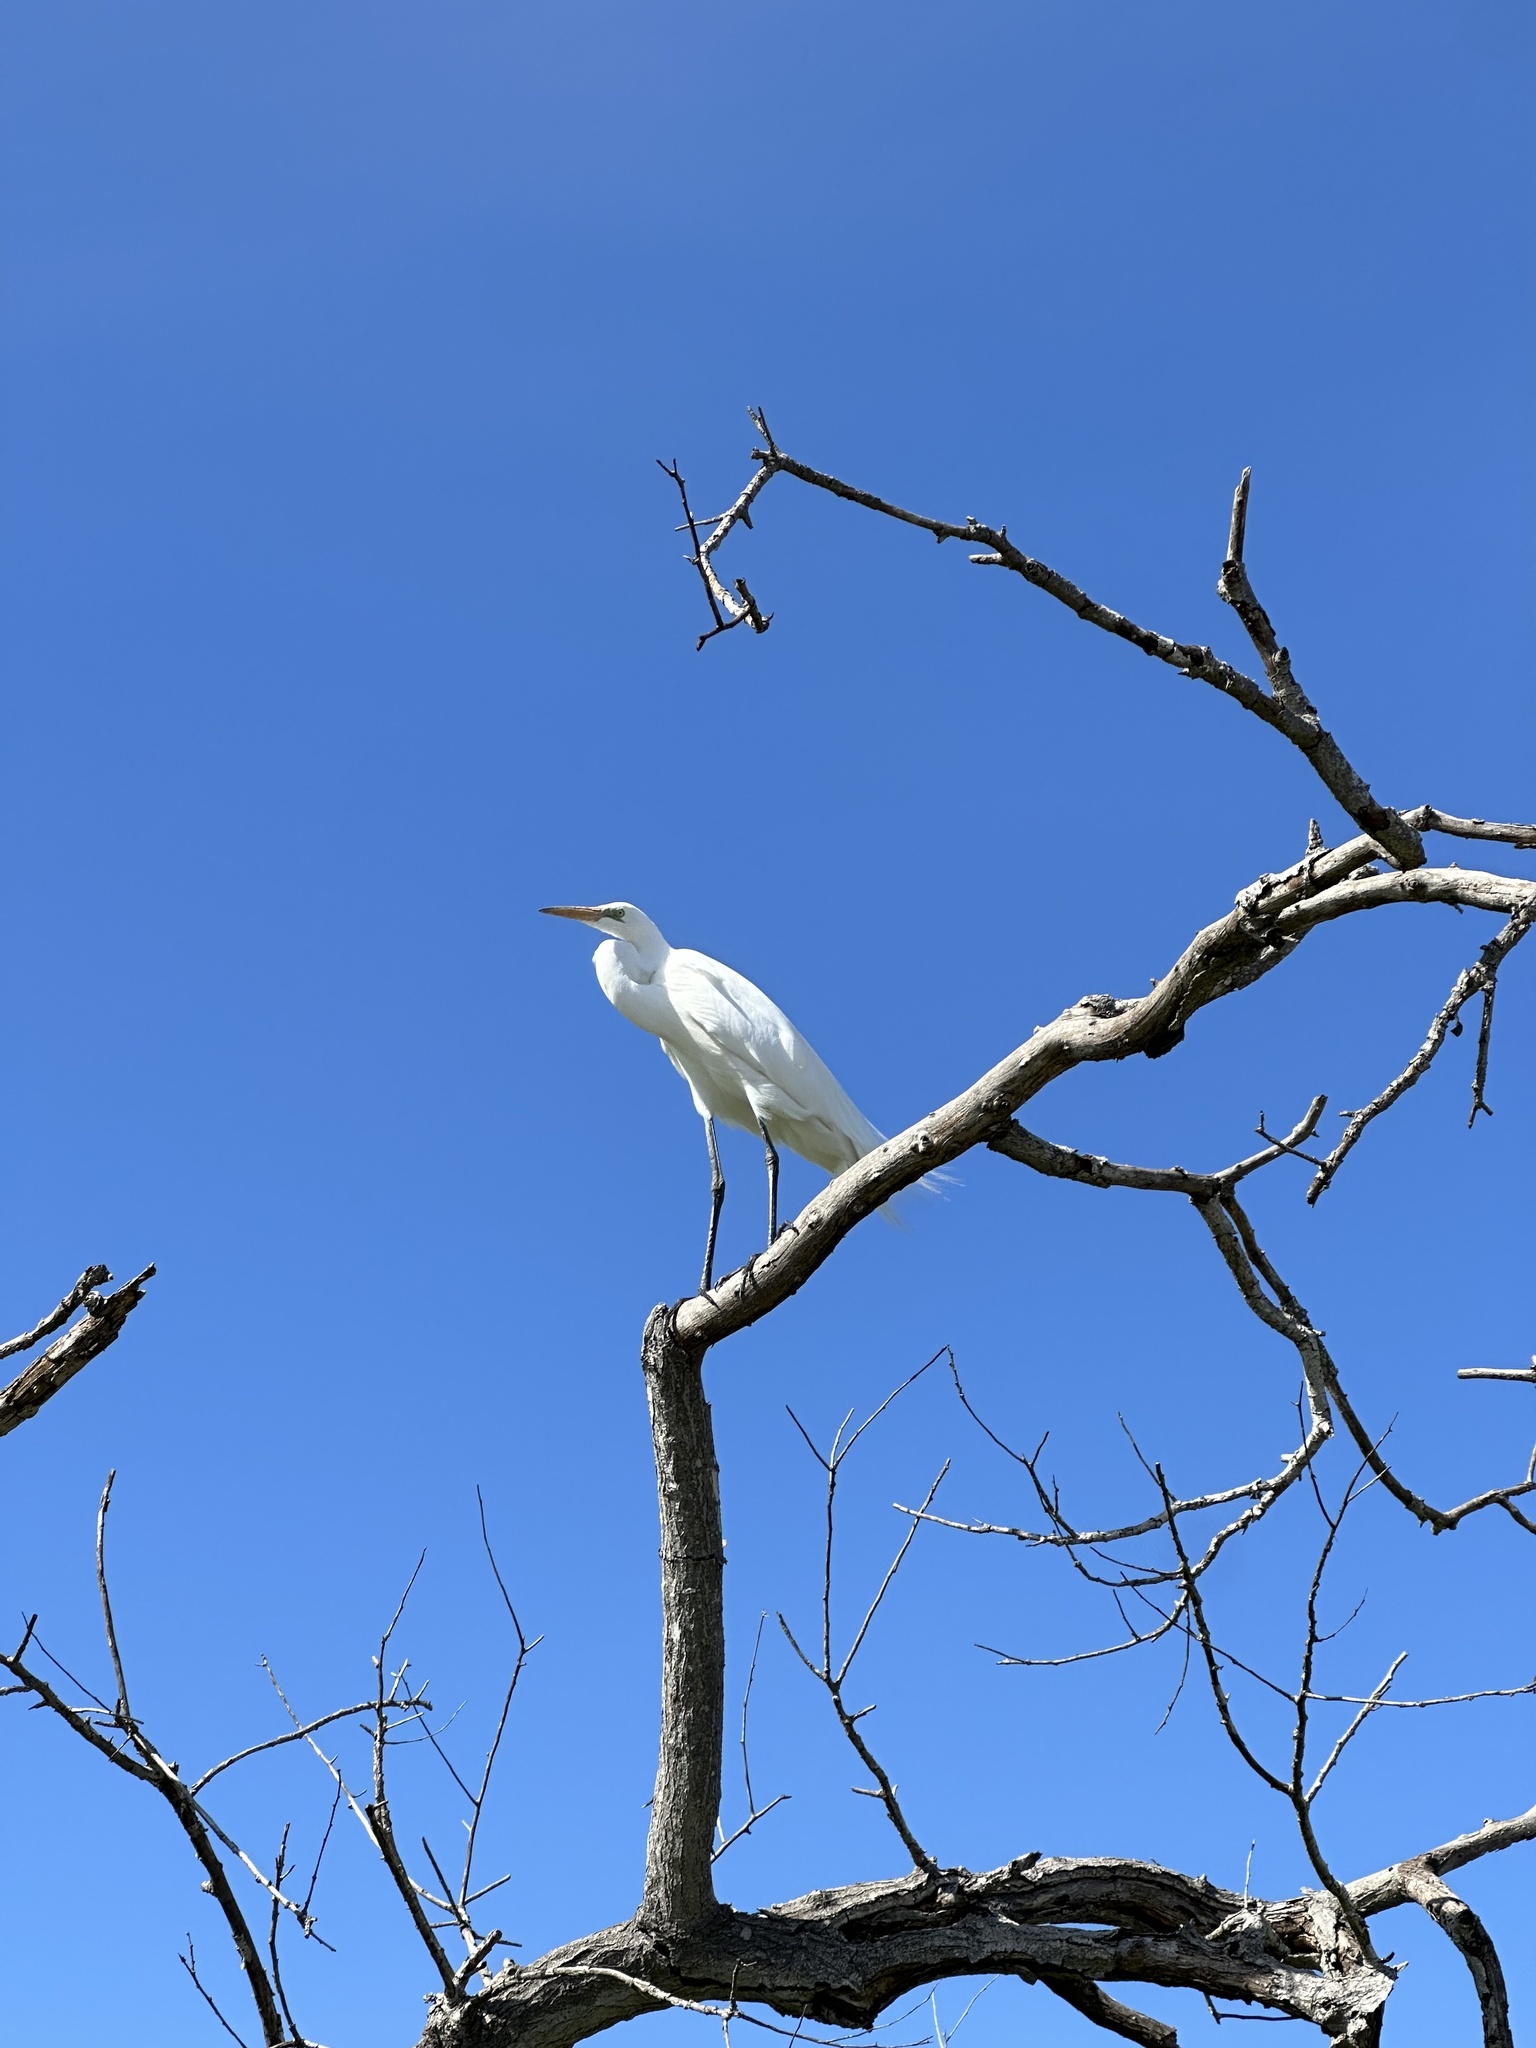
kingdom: Animalia
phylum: Chordata
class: Aves
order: Pelecaniformes
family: Ardeidae
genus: Ardea
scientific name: Ardea alba
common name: Great egret
